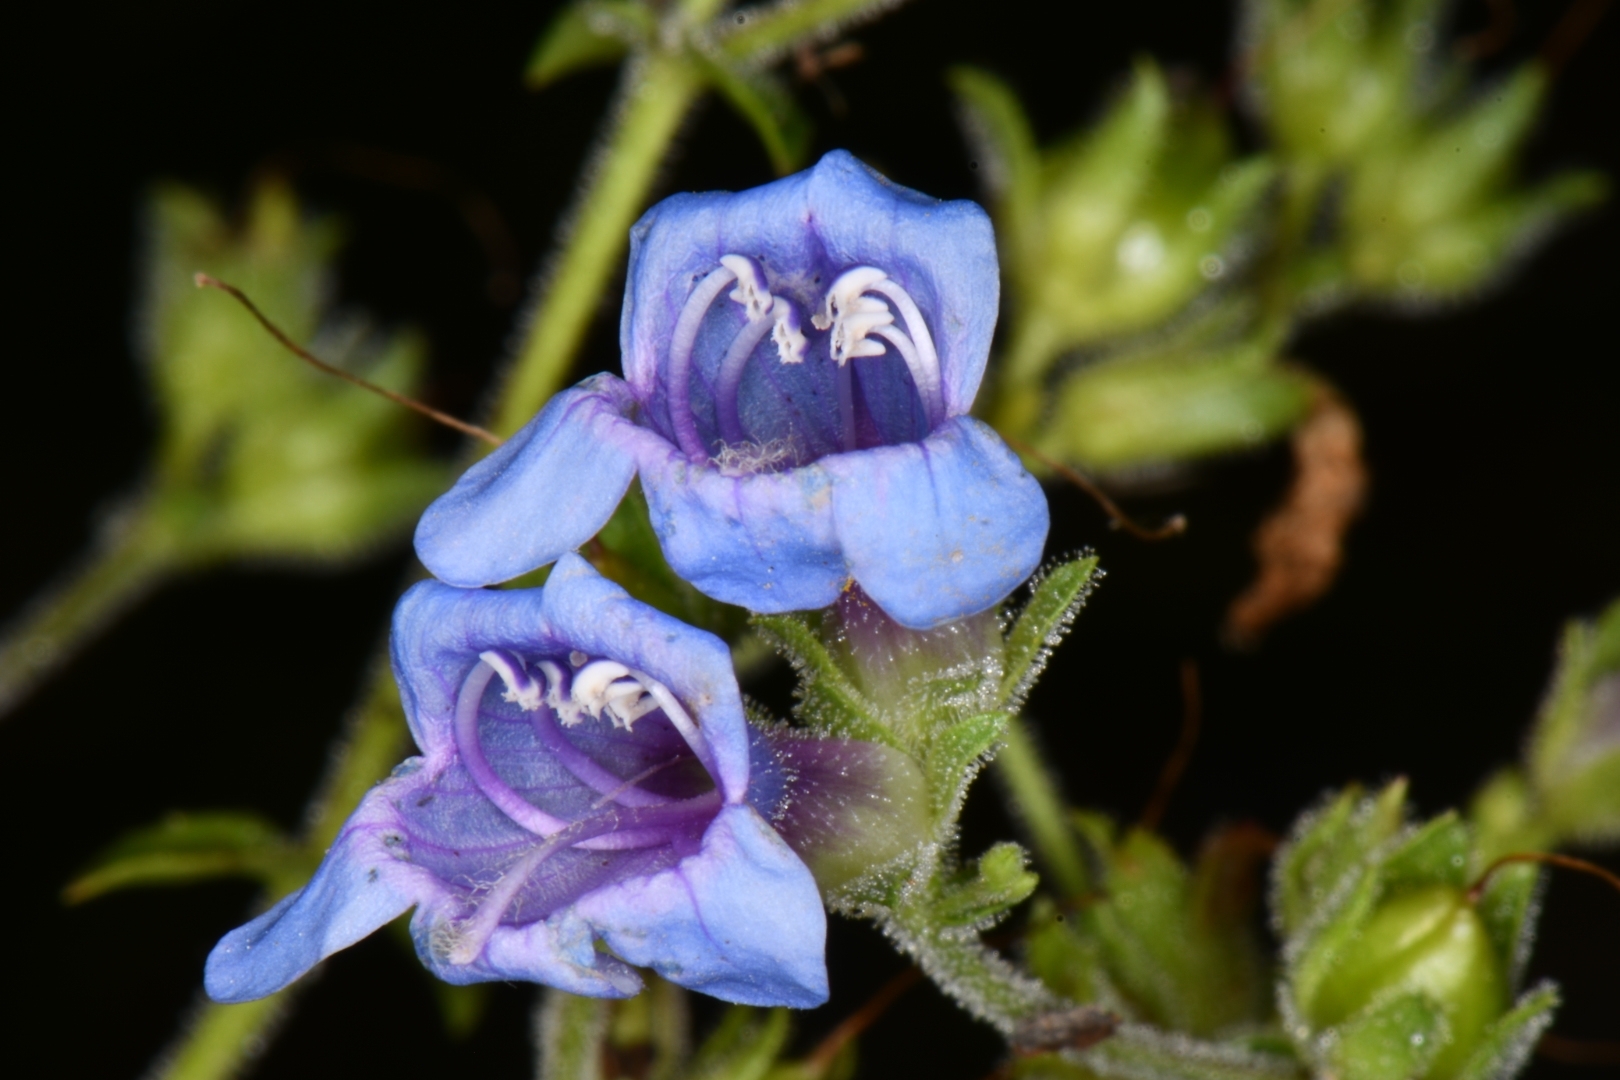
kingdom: Plantae
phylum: Tracheophyta
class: Magnoliopsida
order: Lamiales
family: Plantaginaceae
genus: Penstemon
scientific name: Penstemon diphyllus
